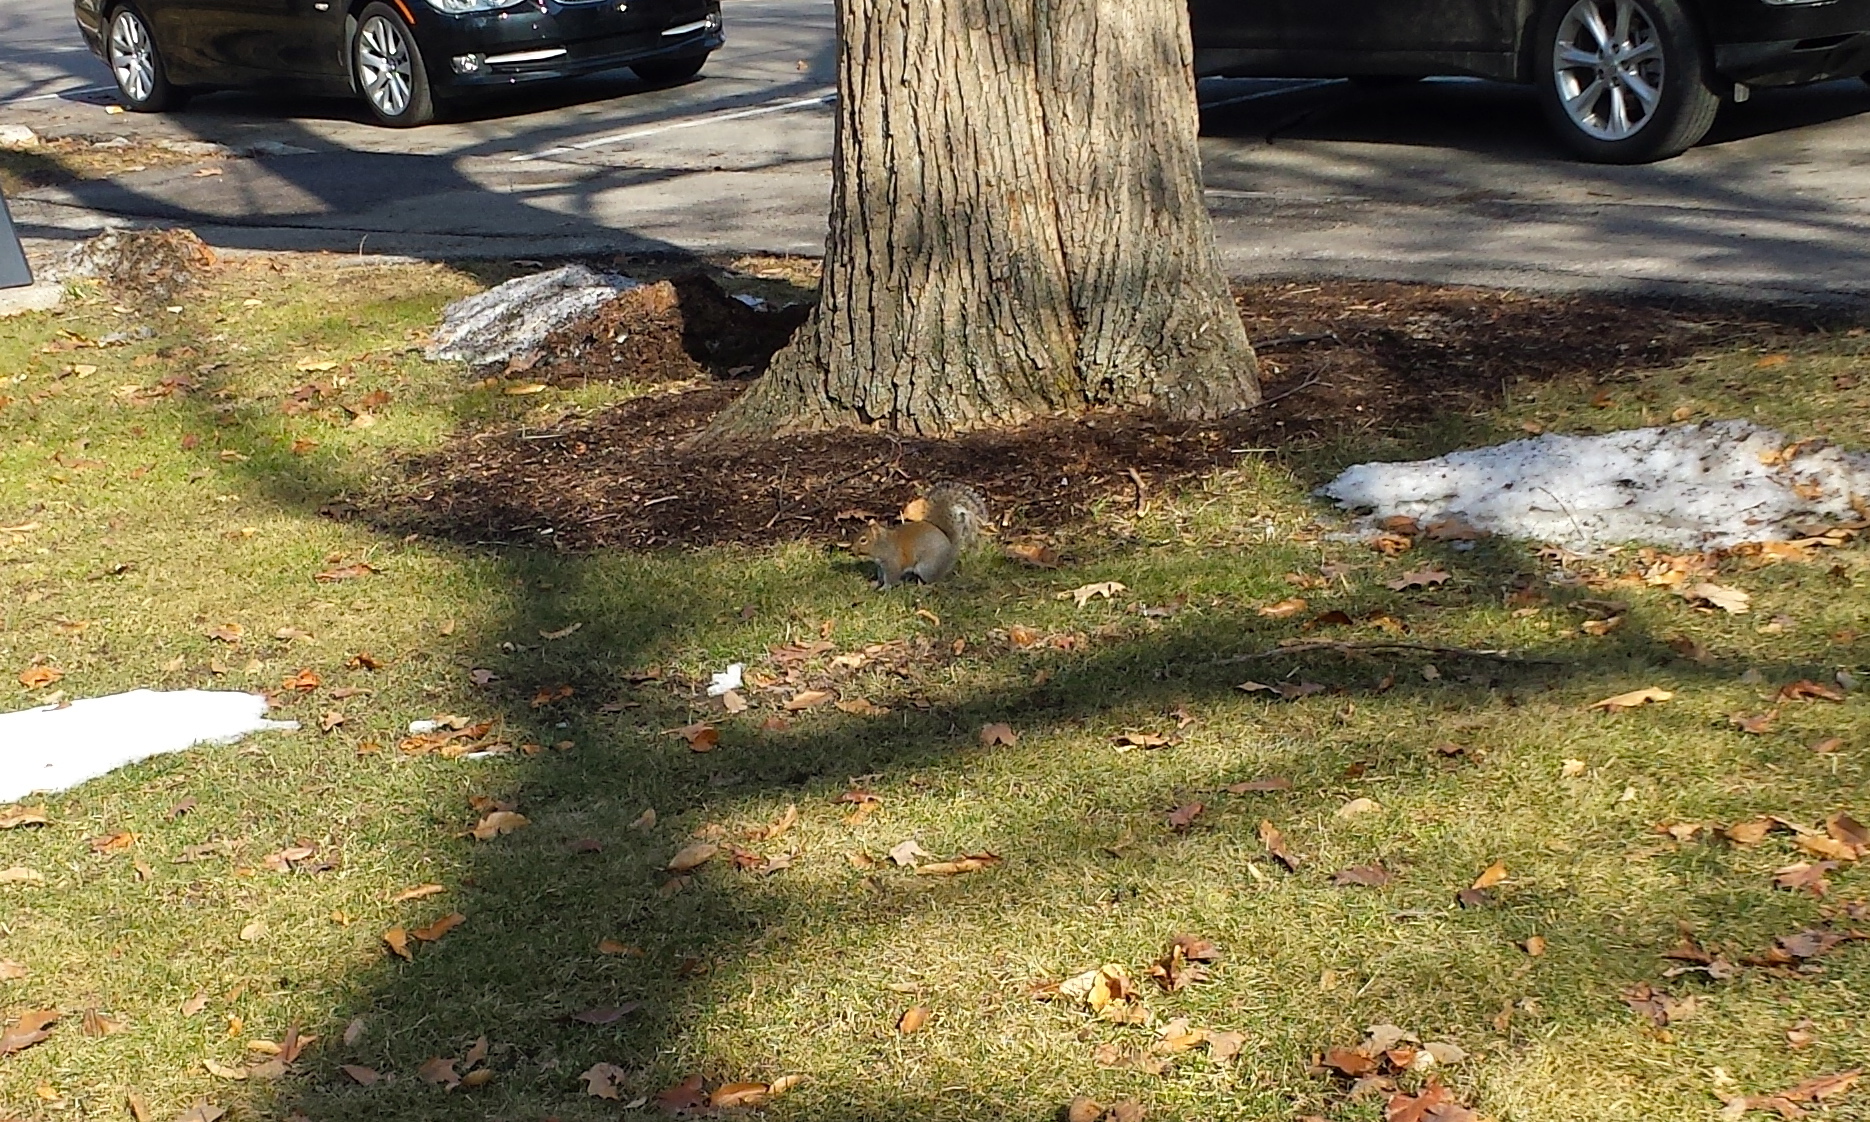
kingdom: Animalia
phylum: Chordata
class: Mammalia
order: Rodentia
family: Sciuridae
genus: Sciurus
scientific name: Sciurus carolinensis
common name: Eastern gray squirrel
